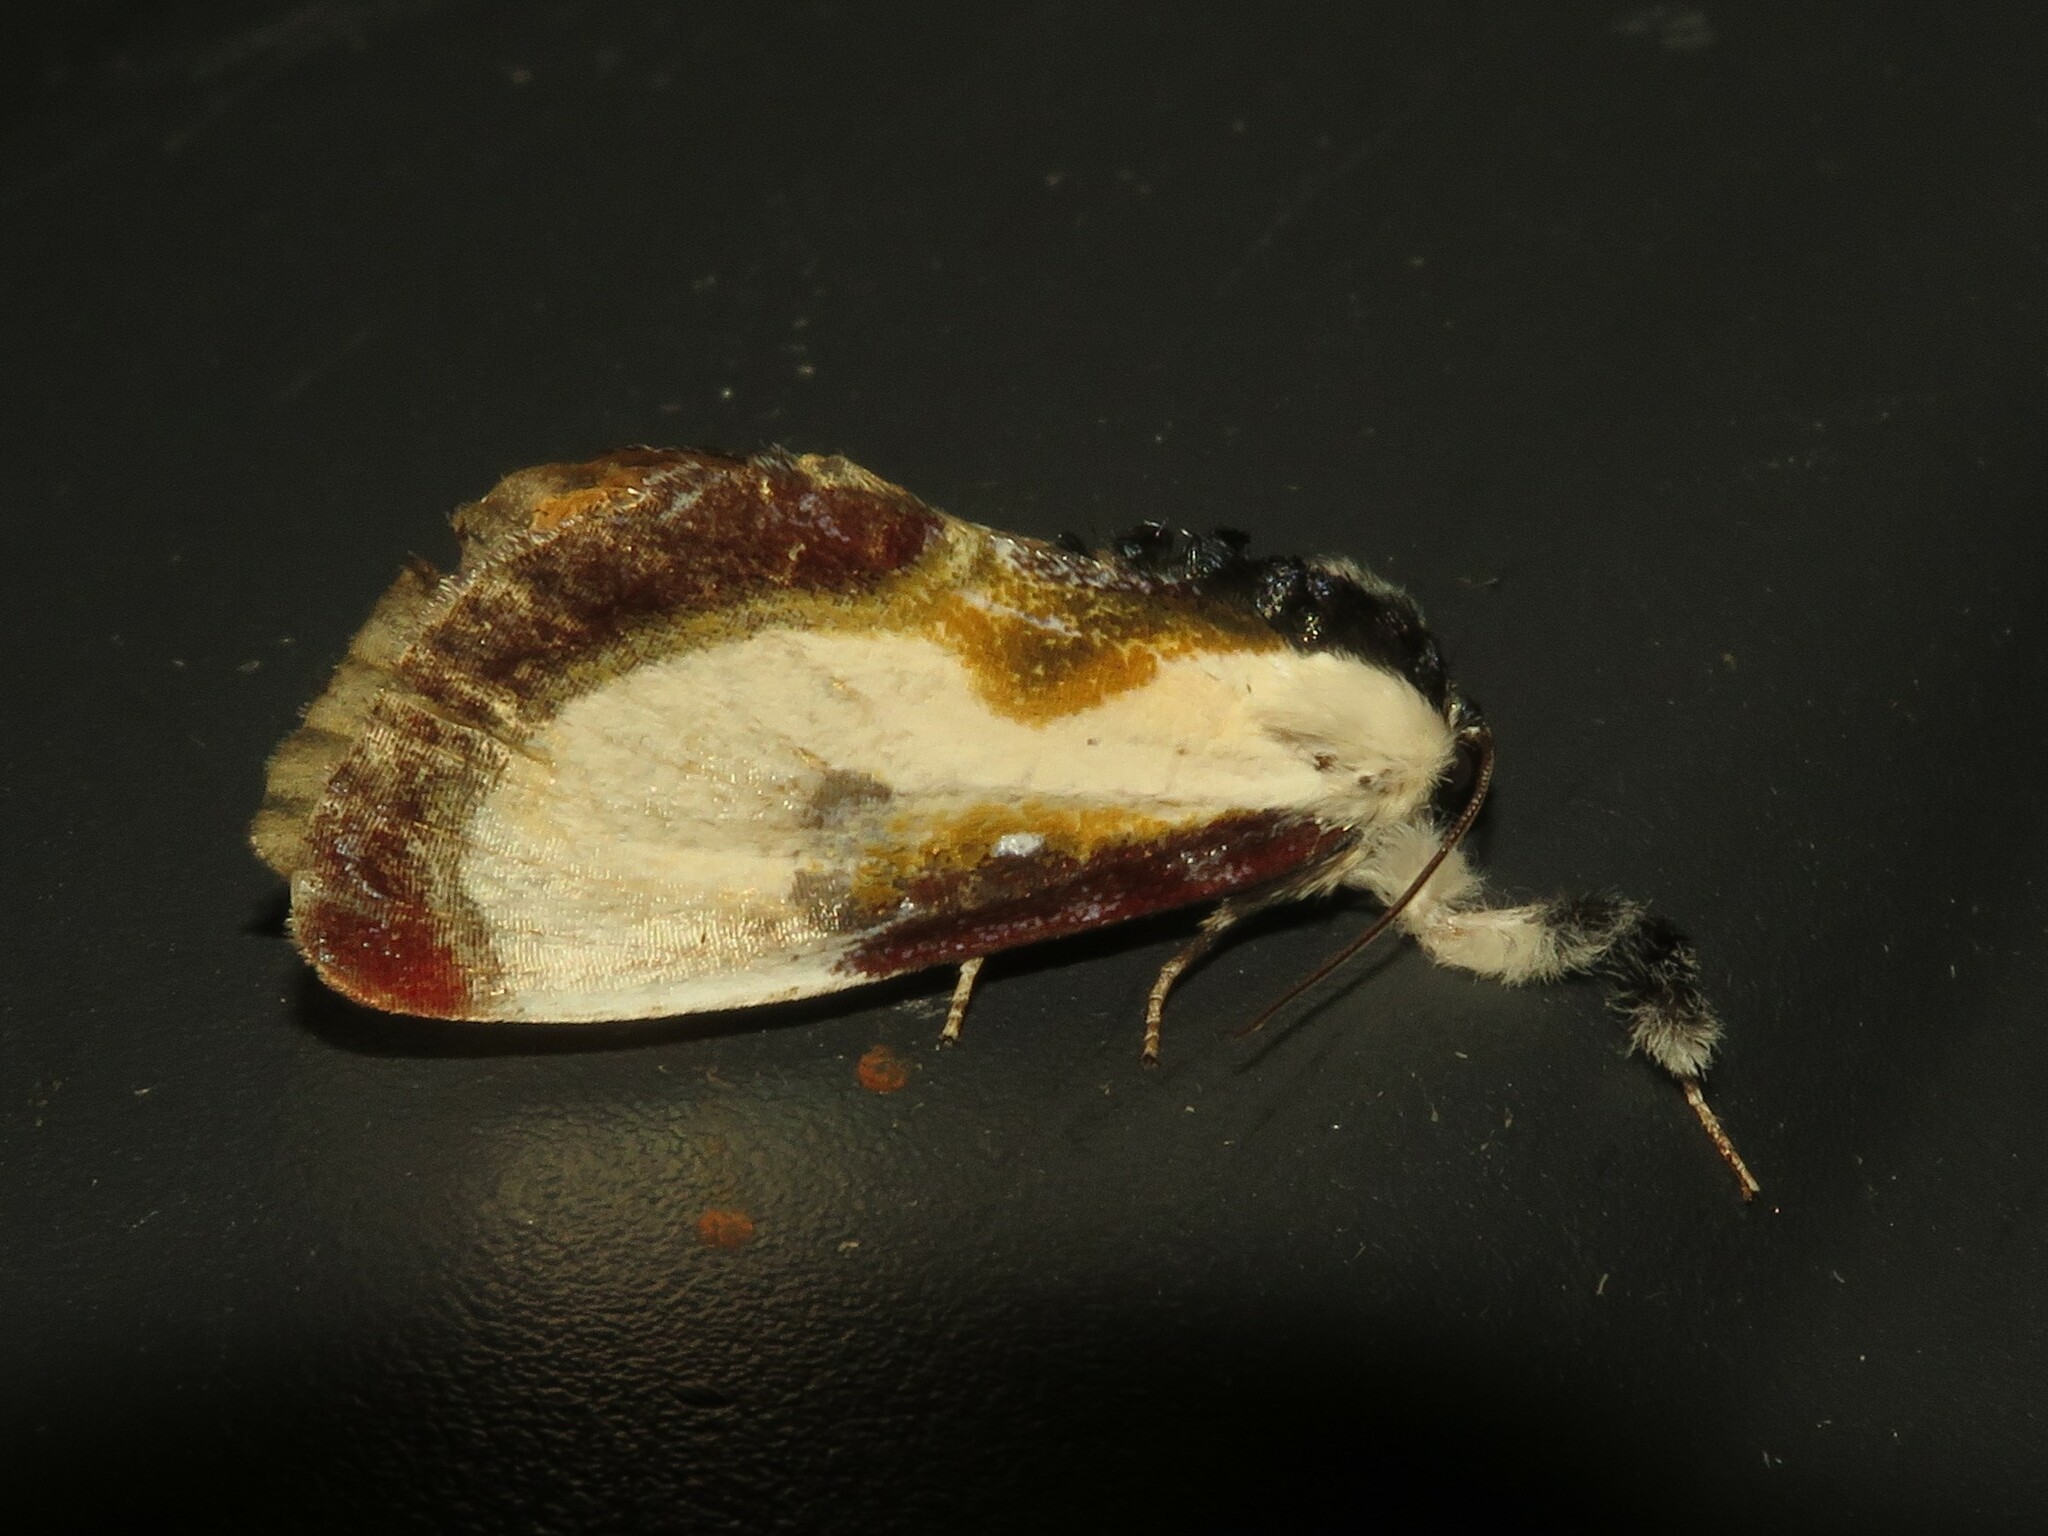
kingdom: Animalia
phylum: Arthropoda
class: Insecta
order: Lepidoptera
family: Noctuidae
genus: Eudryas
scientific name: Eudryas grata
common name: Beautiful wood-nymph
